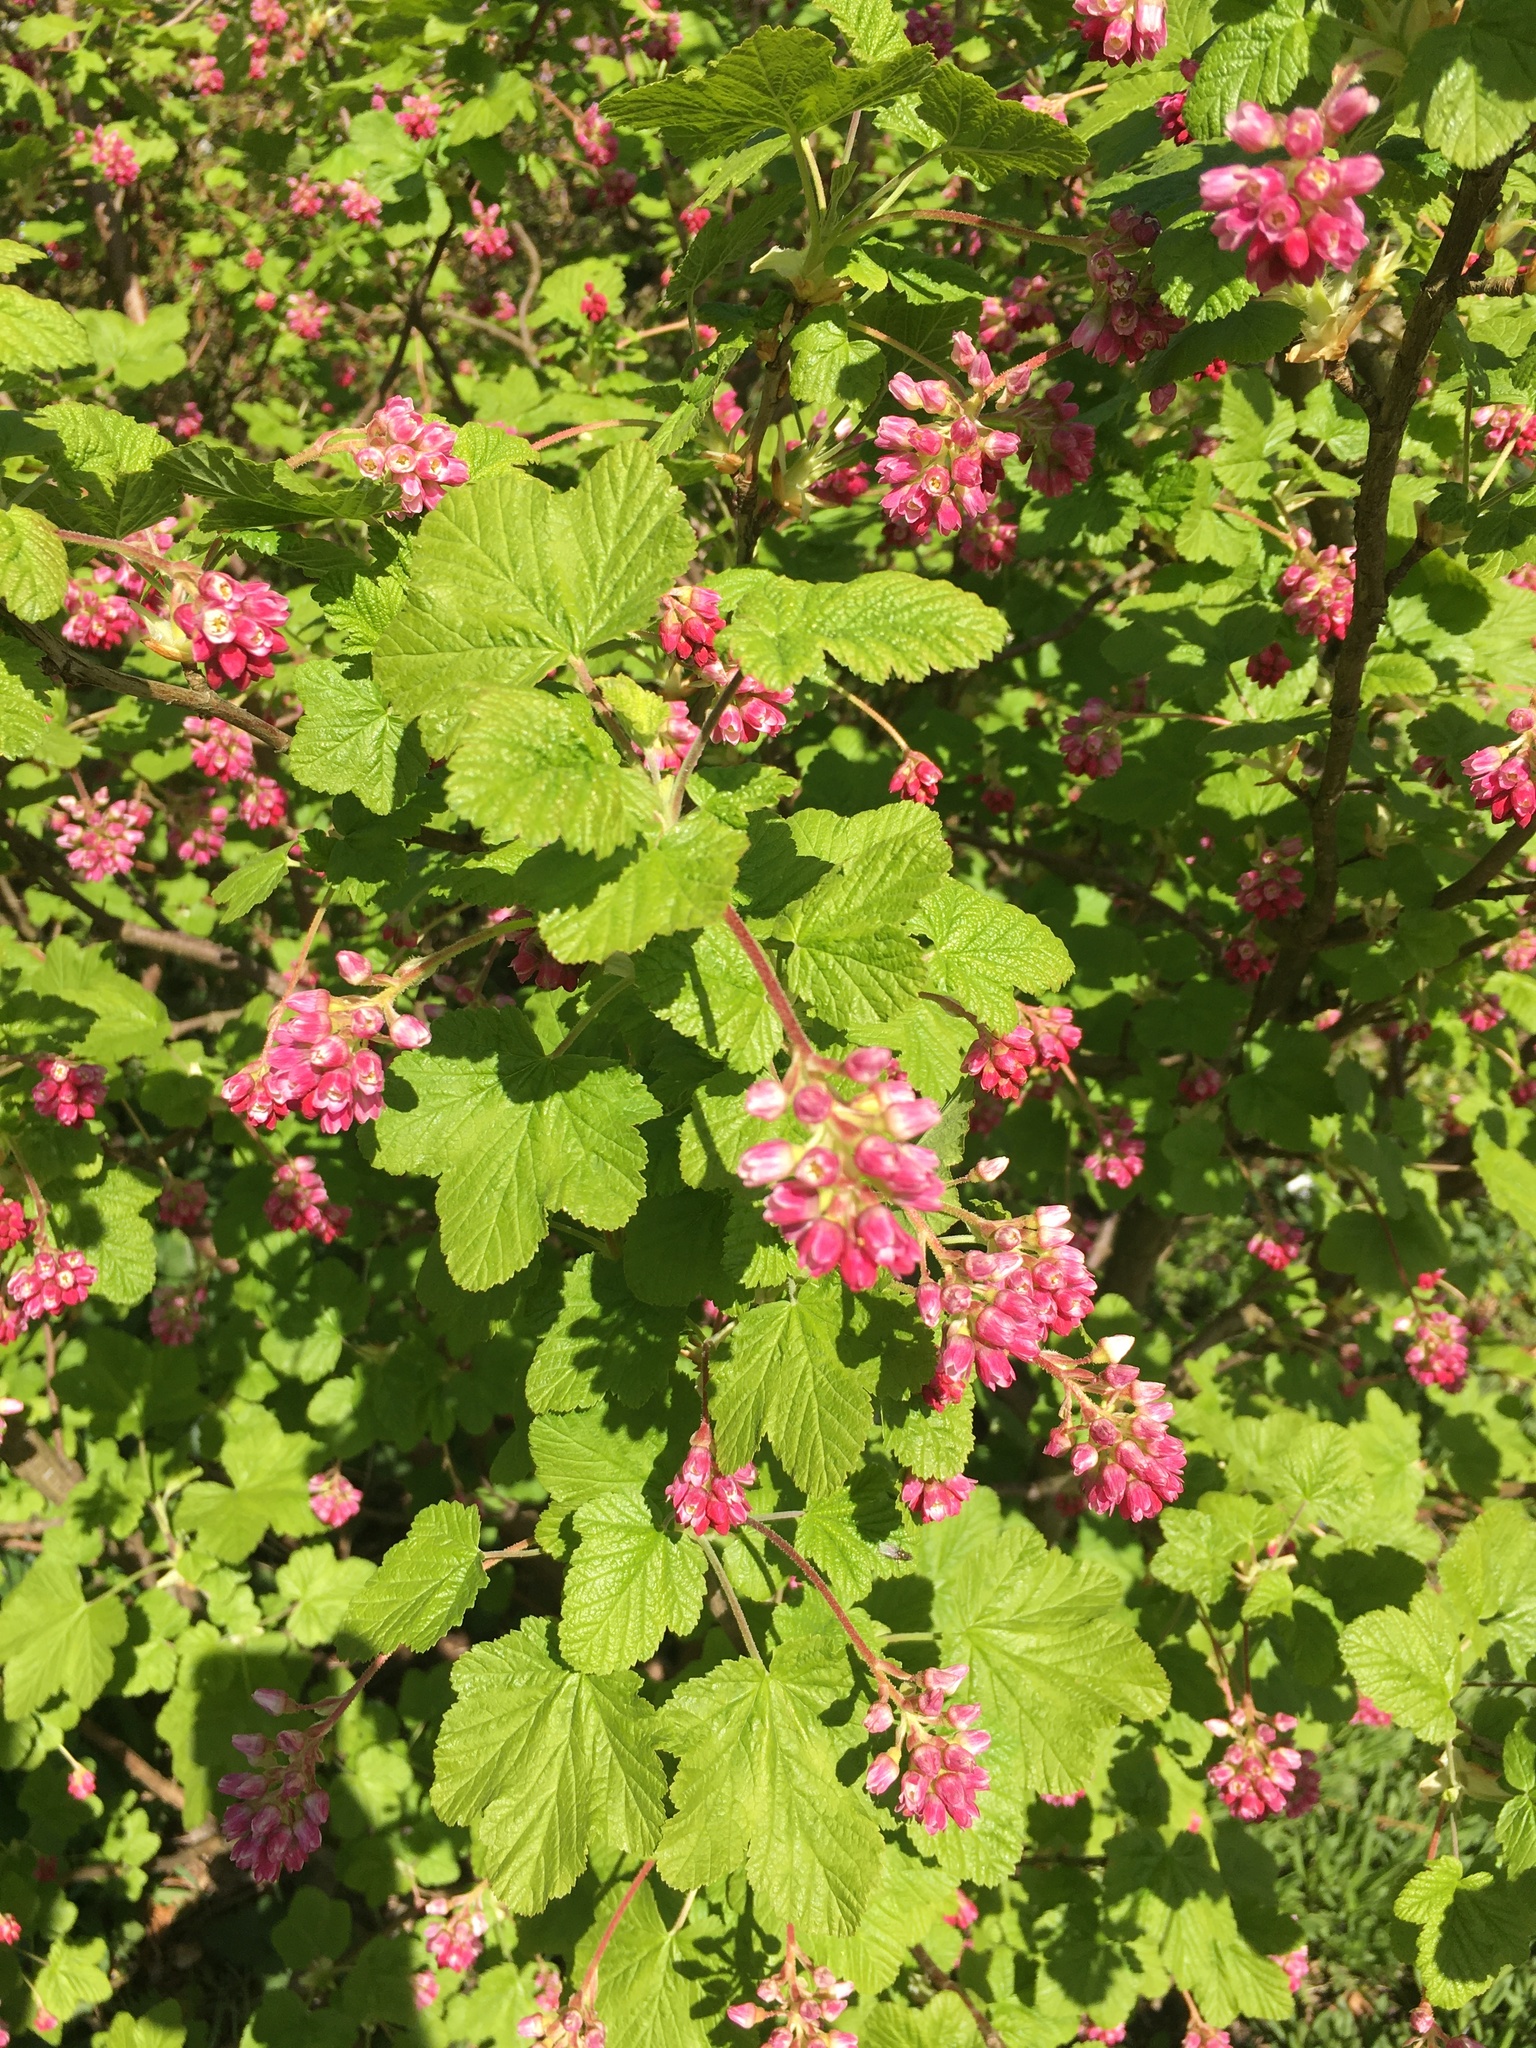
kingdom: Plantae
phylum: Tracheophyta
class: Magnoliopsida
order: Saxifragales
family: Grossulariaceae
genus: Ribes
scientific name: Ribes sanguineum
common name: Flowering currant
